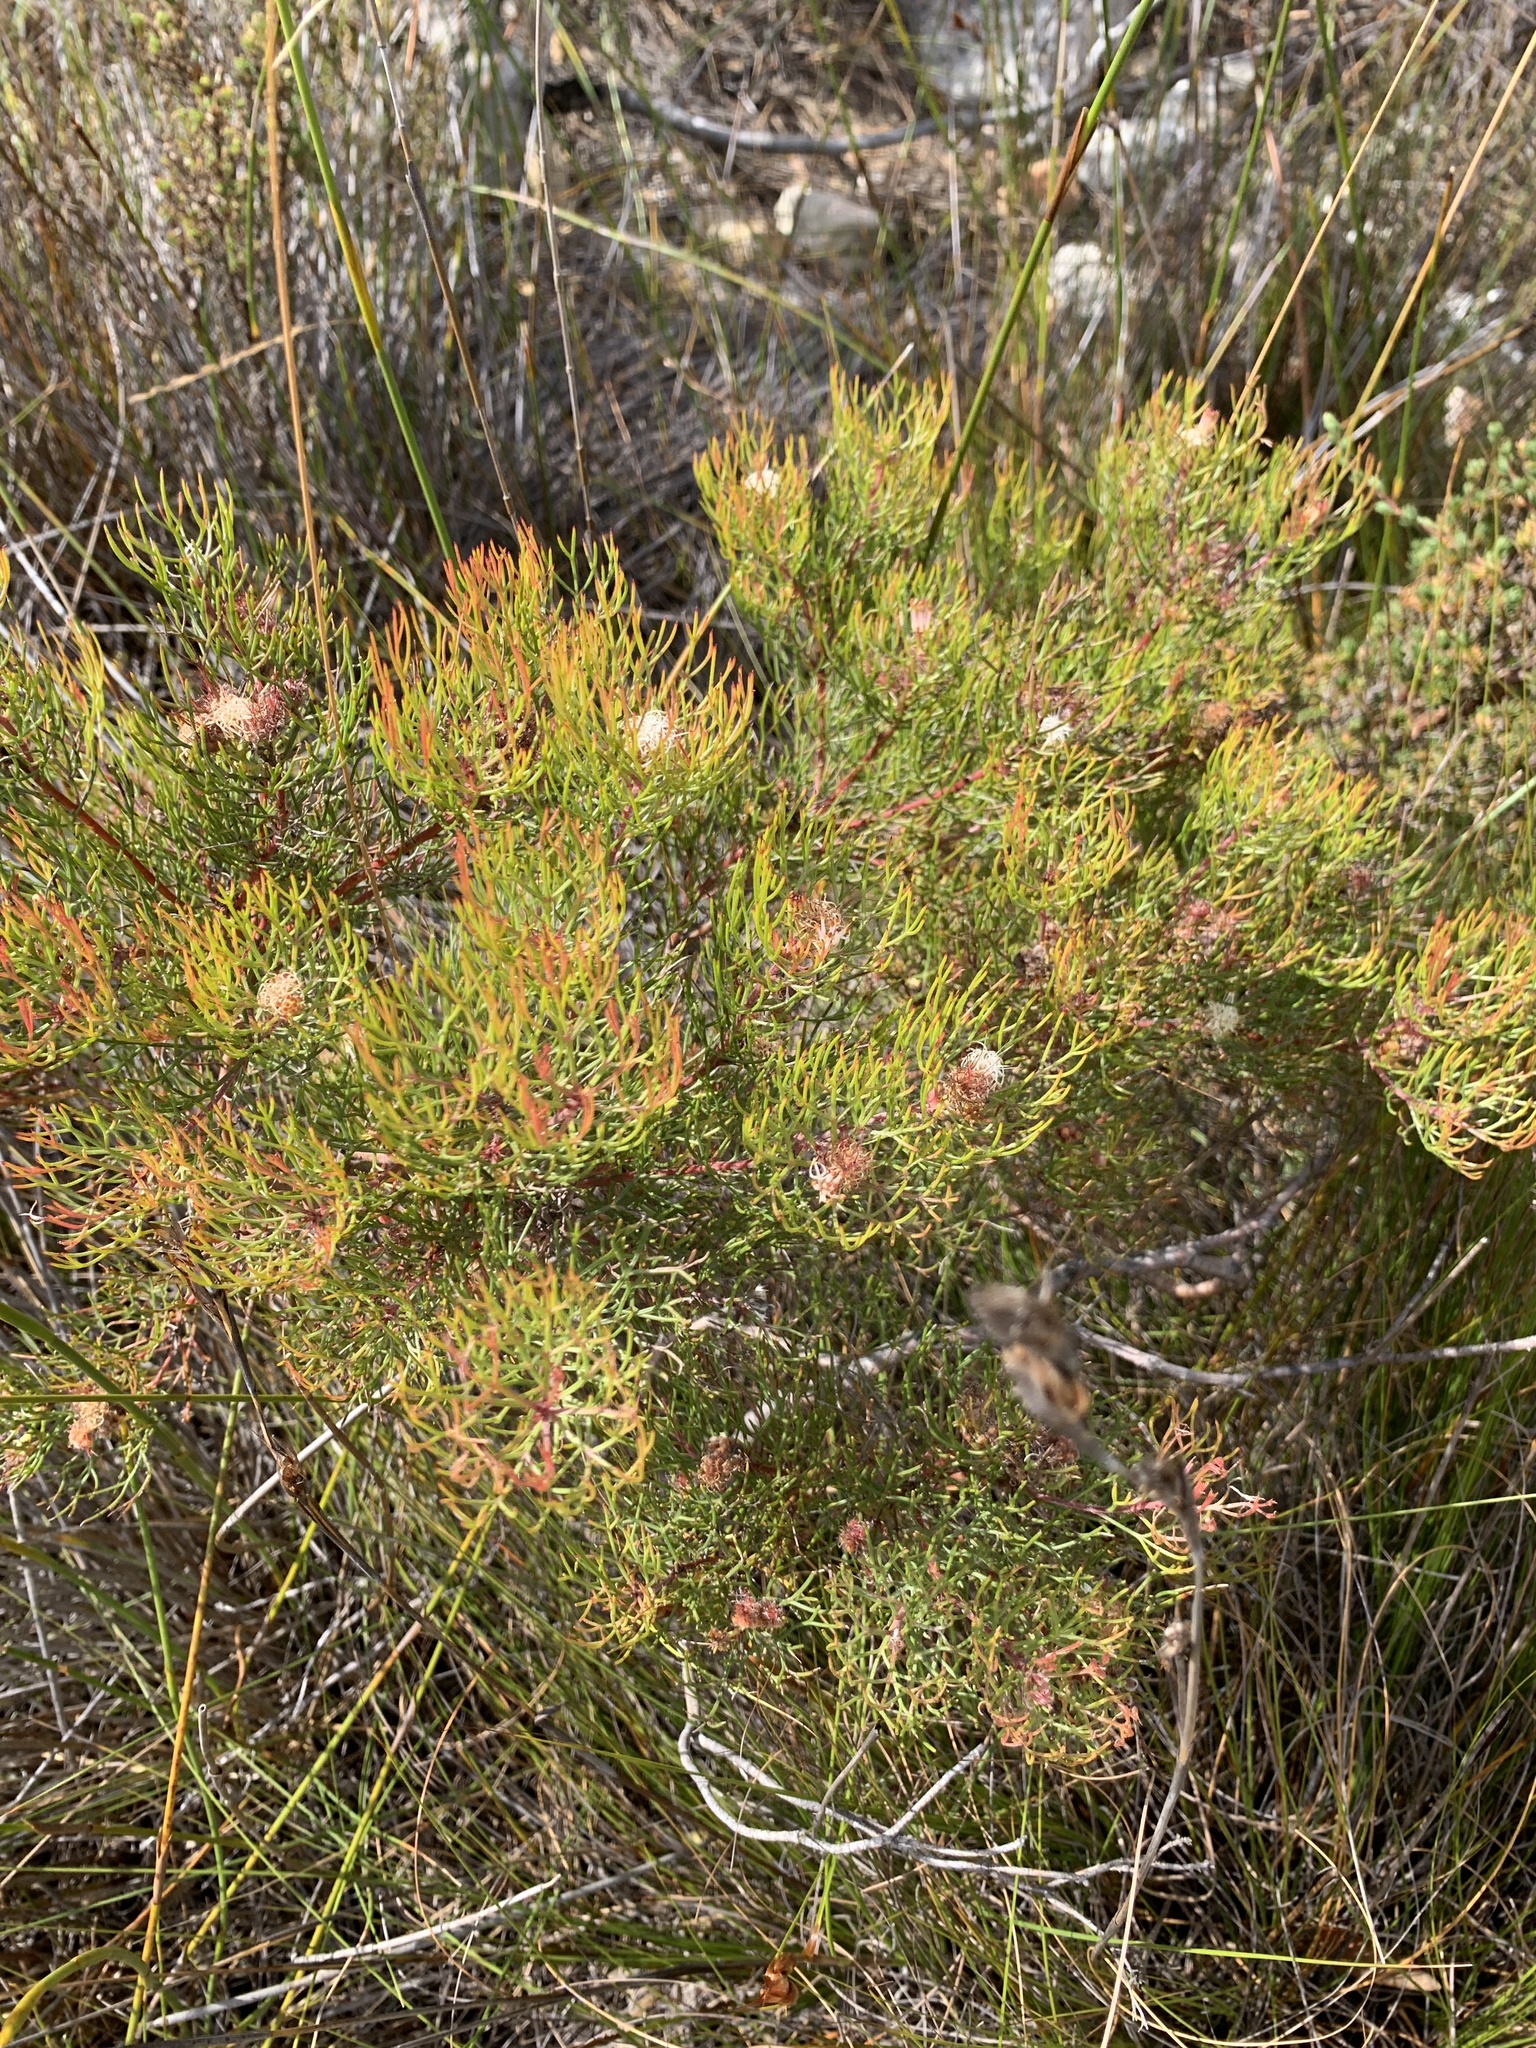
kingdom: Plantae
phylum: Tracheophyta
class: Magnoliopsida
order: Proteales
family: Proteaceae
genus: Serruria
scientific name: Serruria inconspicua
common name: Cryptic spiderhead
